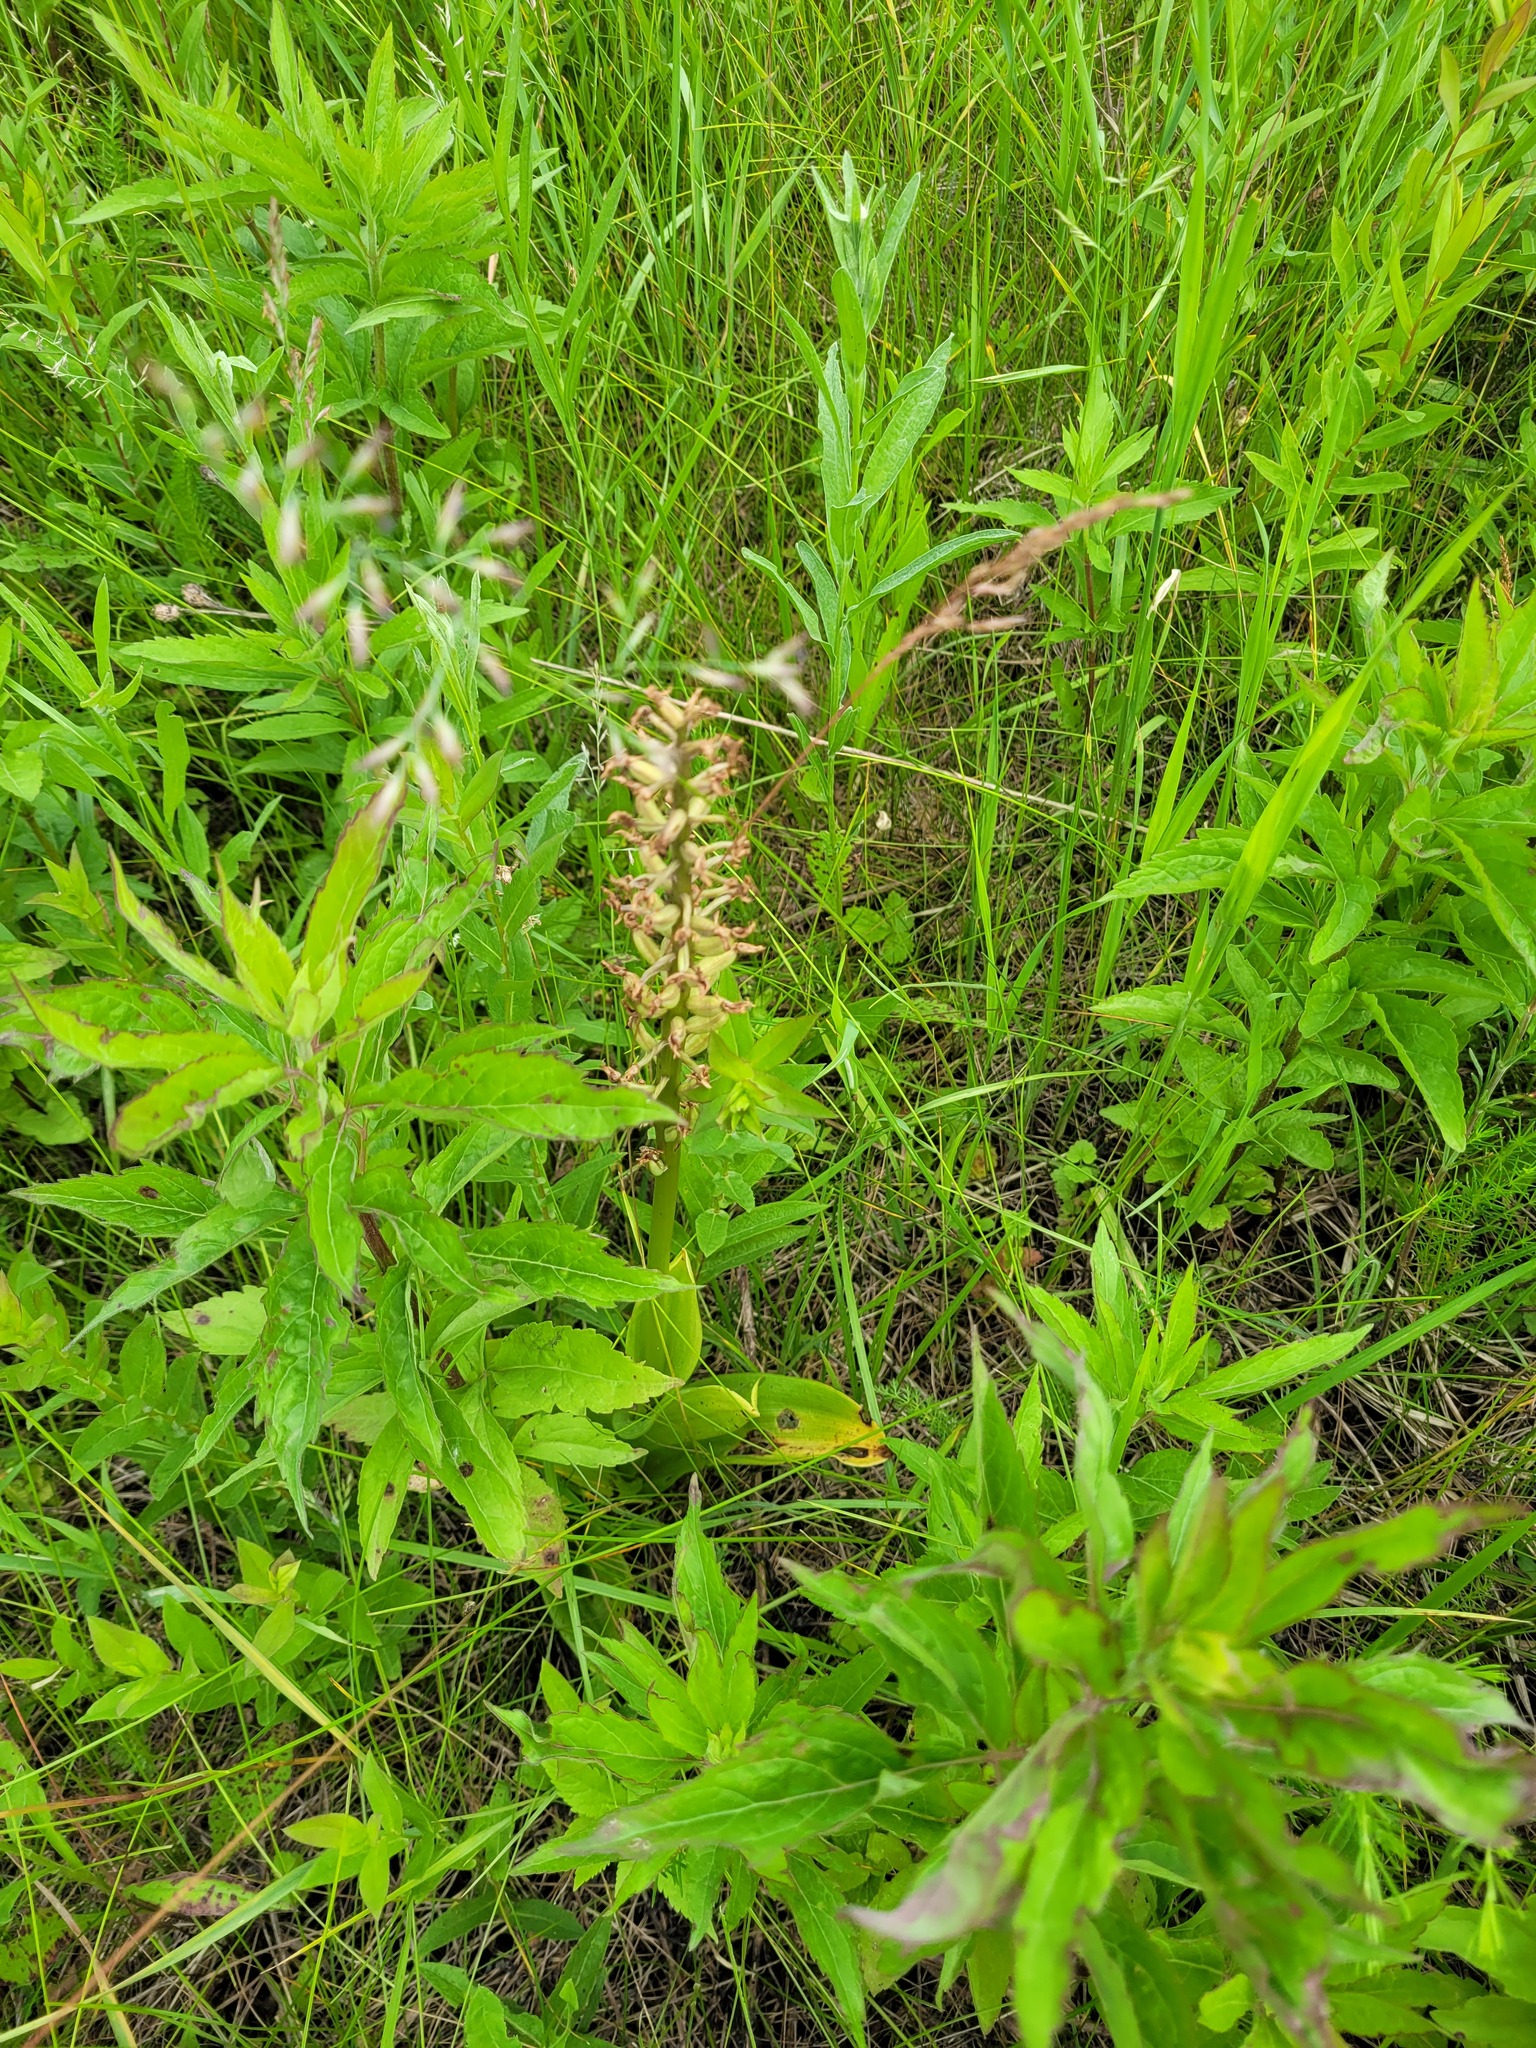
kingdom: Plantae
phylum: Tracheophyta
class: Liliopsida
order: Asparagales
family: Orchidaceae
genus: Orchis
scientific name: Orchis militaris
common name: Military orchid
